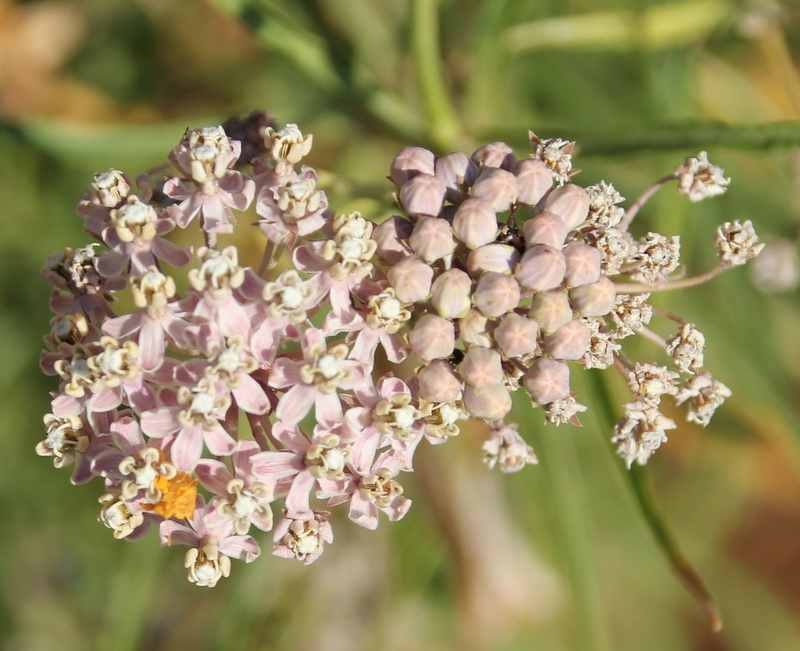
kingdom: Plantae
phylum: Tracheophyta
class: Magnoliopsida
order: Gentianales
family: Apocynaceae
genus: Asclepias
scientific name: Asclepias fascicularis
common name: Mexican milkweed
